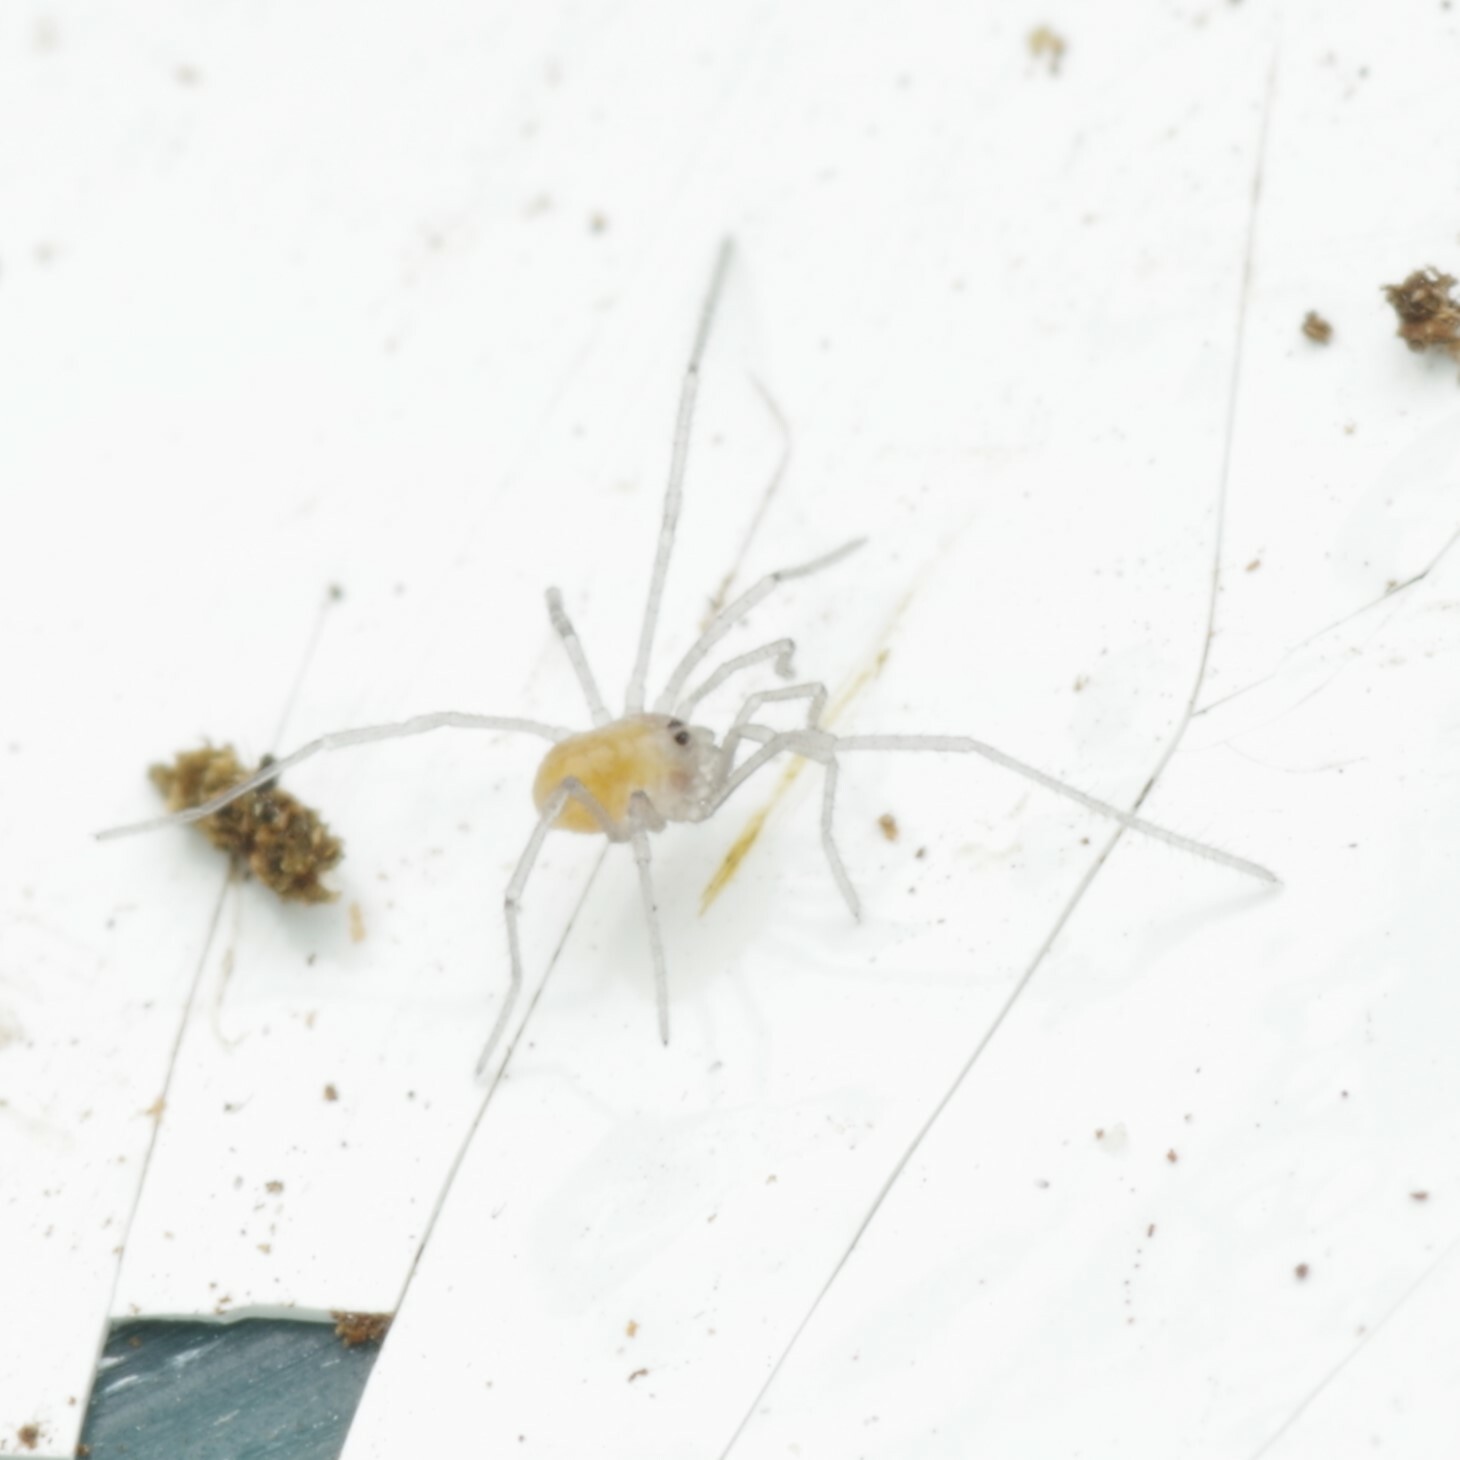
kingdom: Animalia
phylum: Arthropoda
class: Arachnida
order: Opiliones
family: Nemastomatidae
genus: Mitostoma
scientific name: Mitostoma chrysomelas
